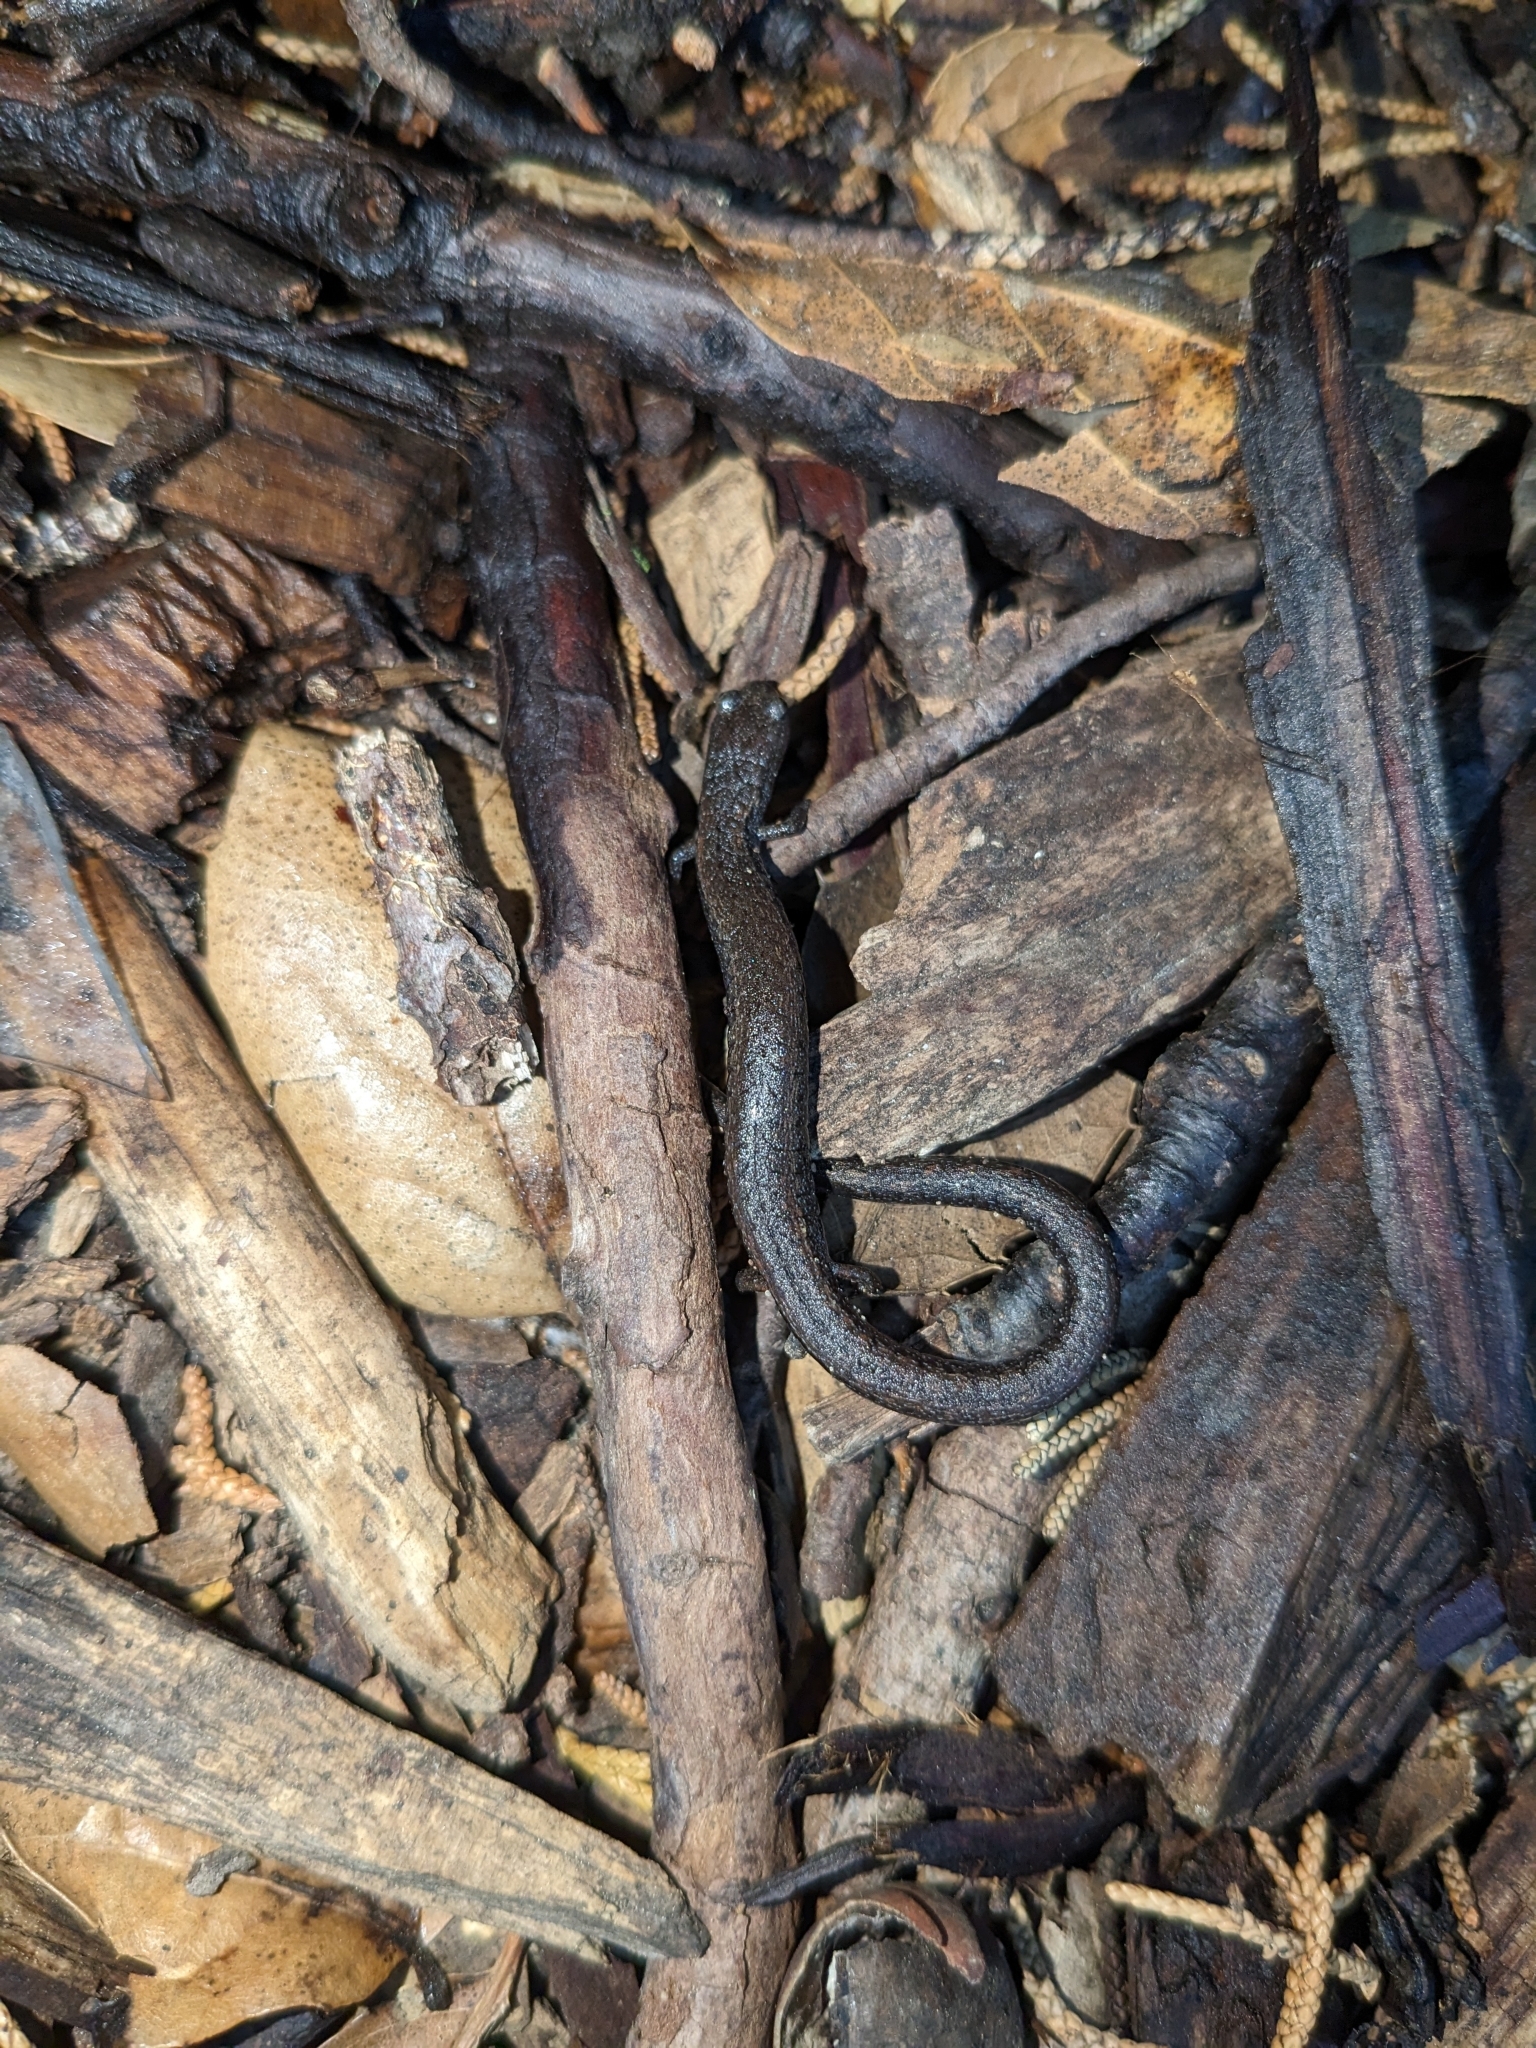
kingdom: Animalia
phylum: Chordata
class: Amphibia
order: Caudata
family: Plethodontidae
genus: Batrachoseps
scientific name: Batrachoseps attenuatus
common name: California slender salamander
